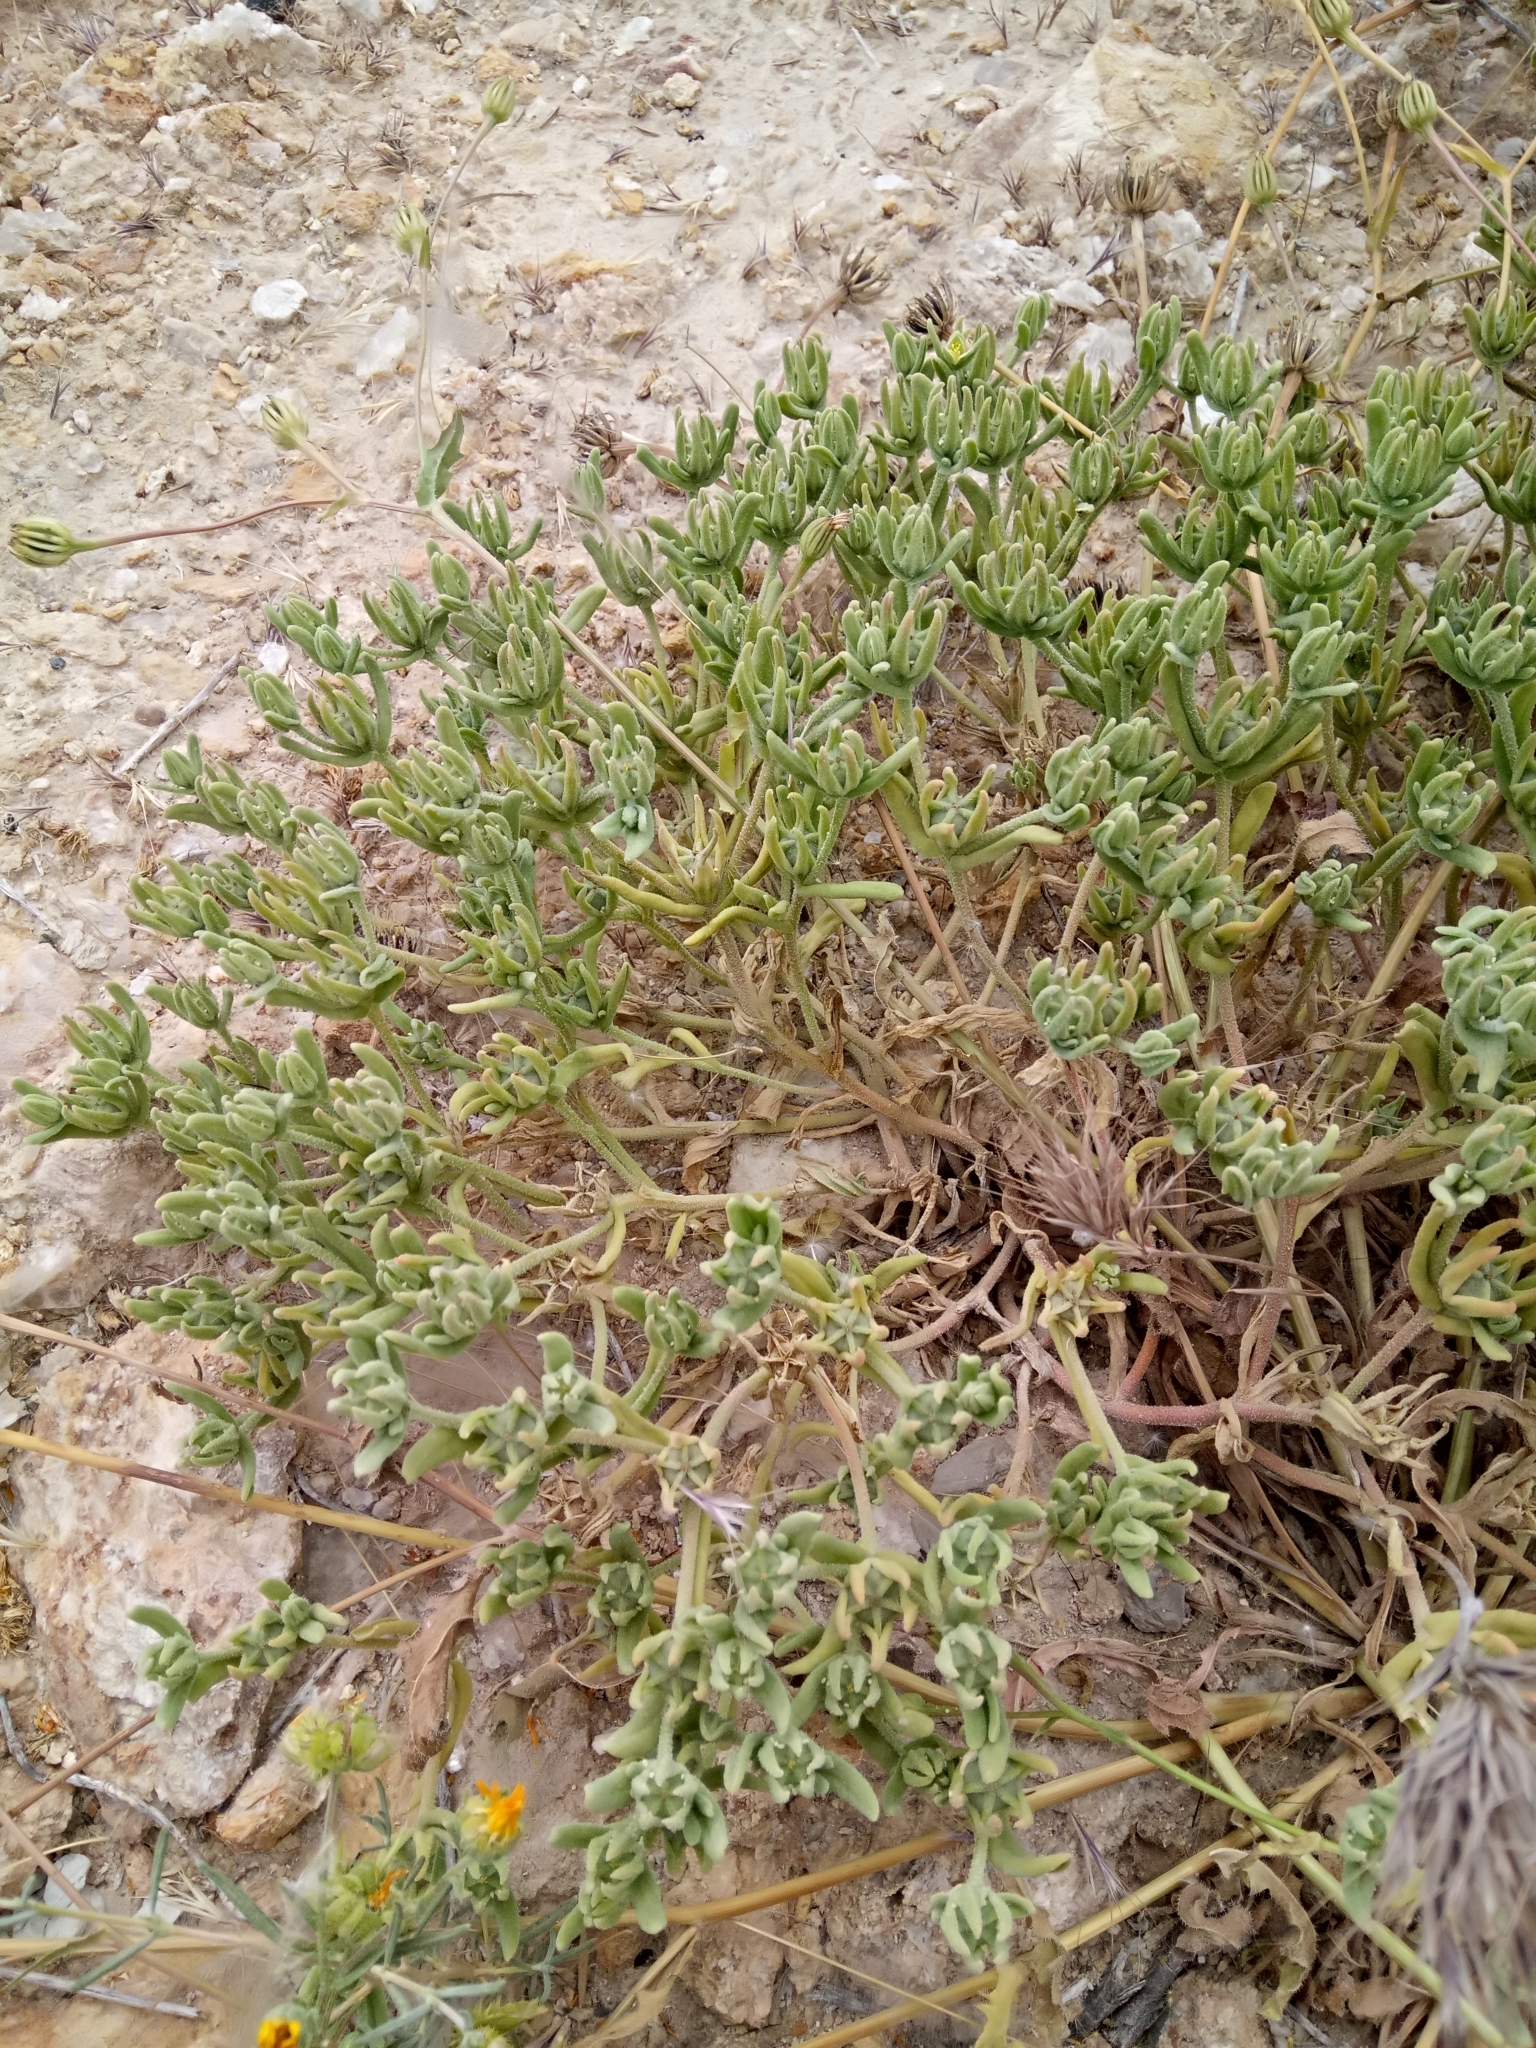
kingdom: Plantae
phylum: Tracheophyta
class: Magnoliopsida
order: Caryophyllales
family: Aizoaceae
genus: Aizoanthemopsis
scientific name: Aizoanthemopsis hispanica
